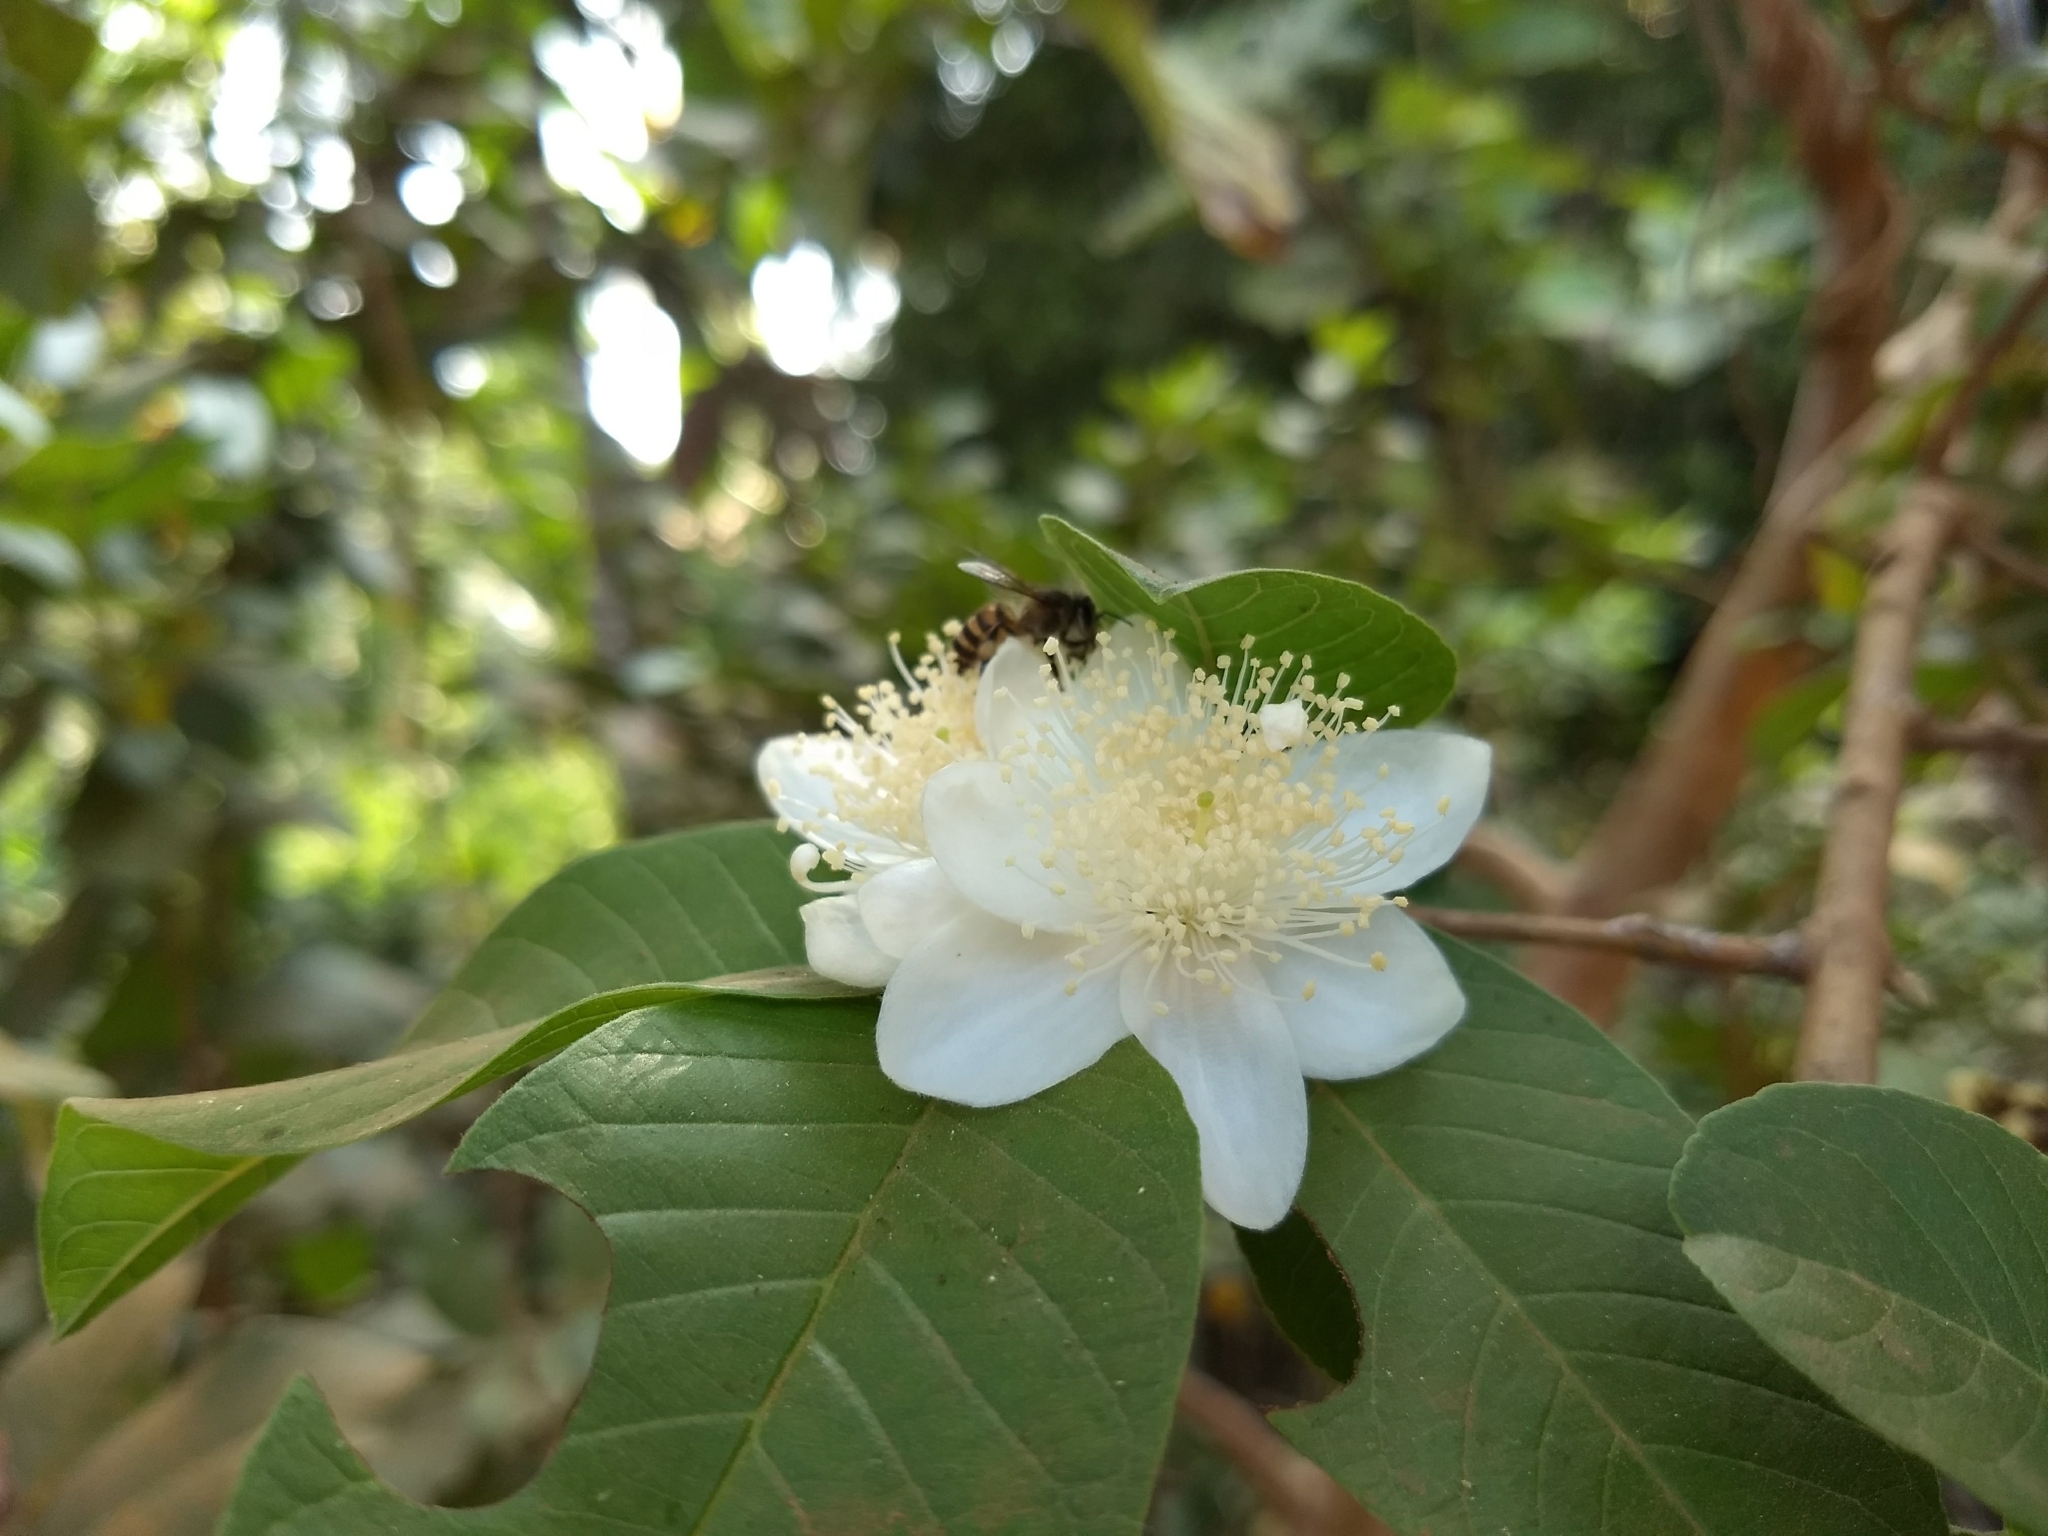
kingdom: Plantae
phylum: Tracheophyta
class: Magnoliopsida
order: Myrtales
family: Myrtaceae
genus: Psidium
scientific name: Psidium guajava
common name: Guava
